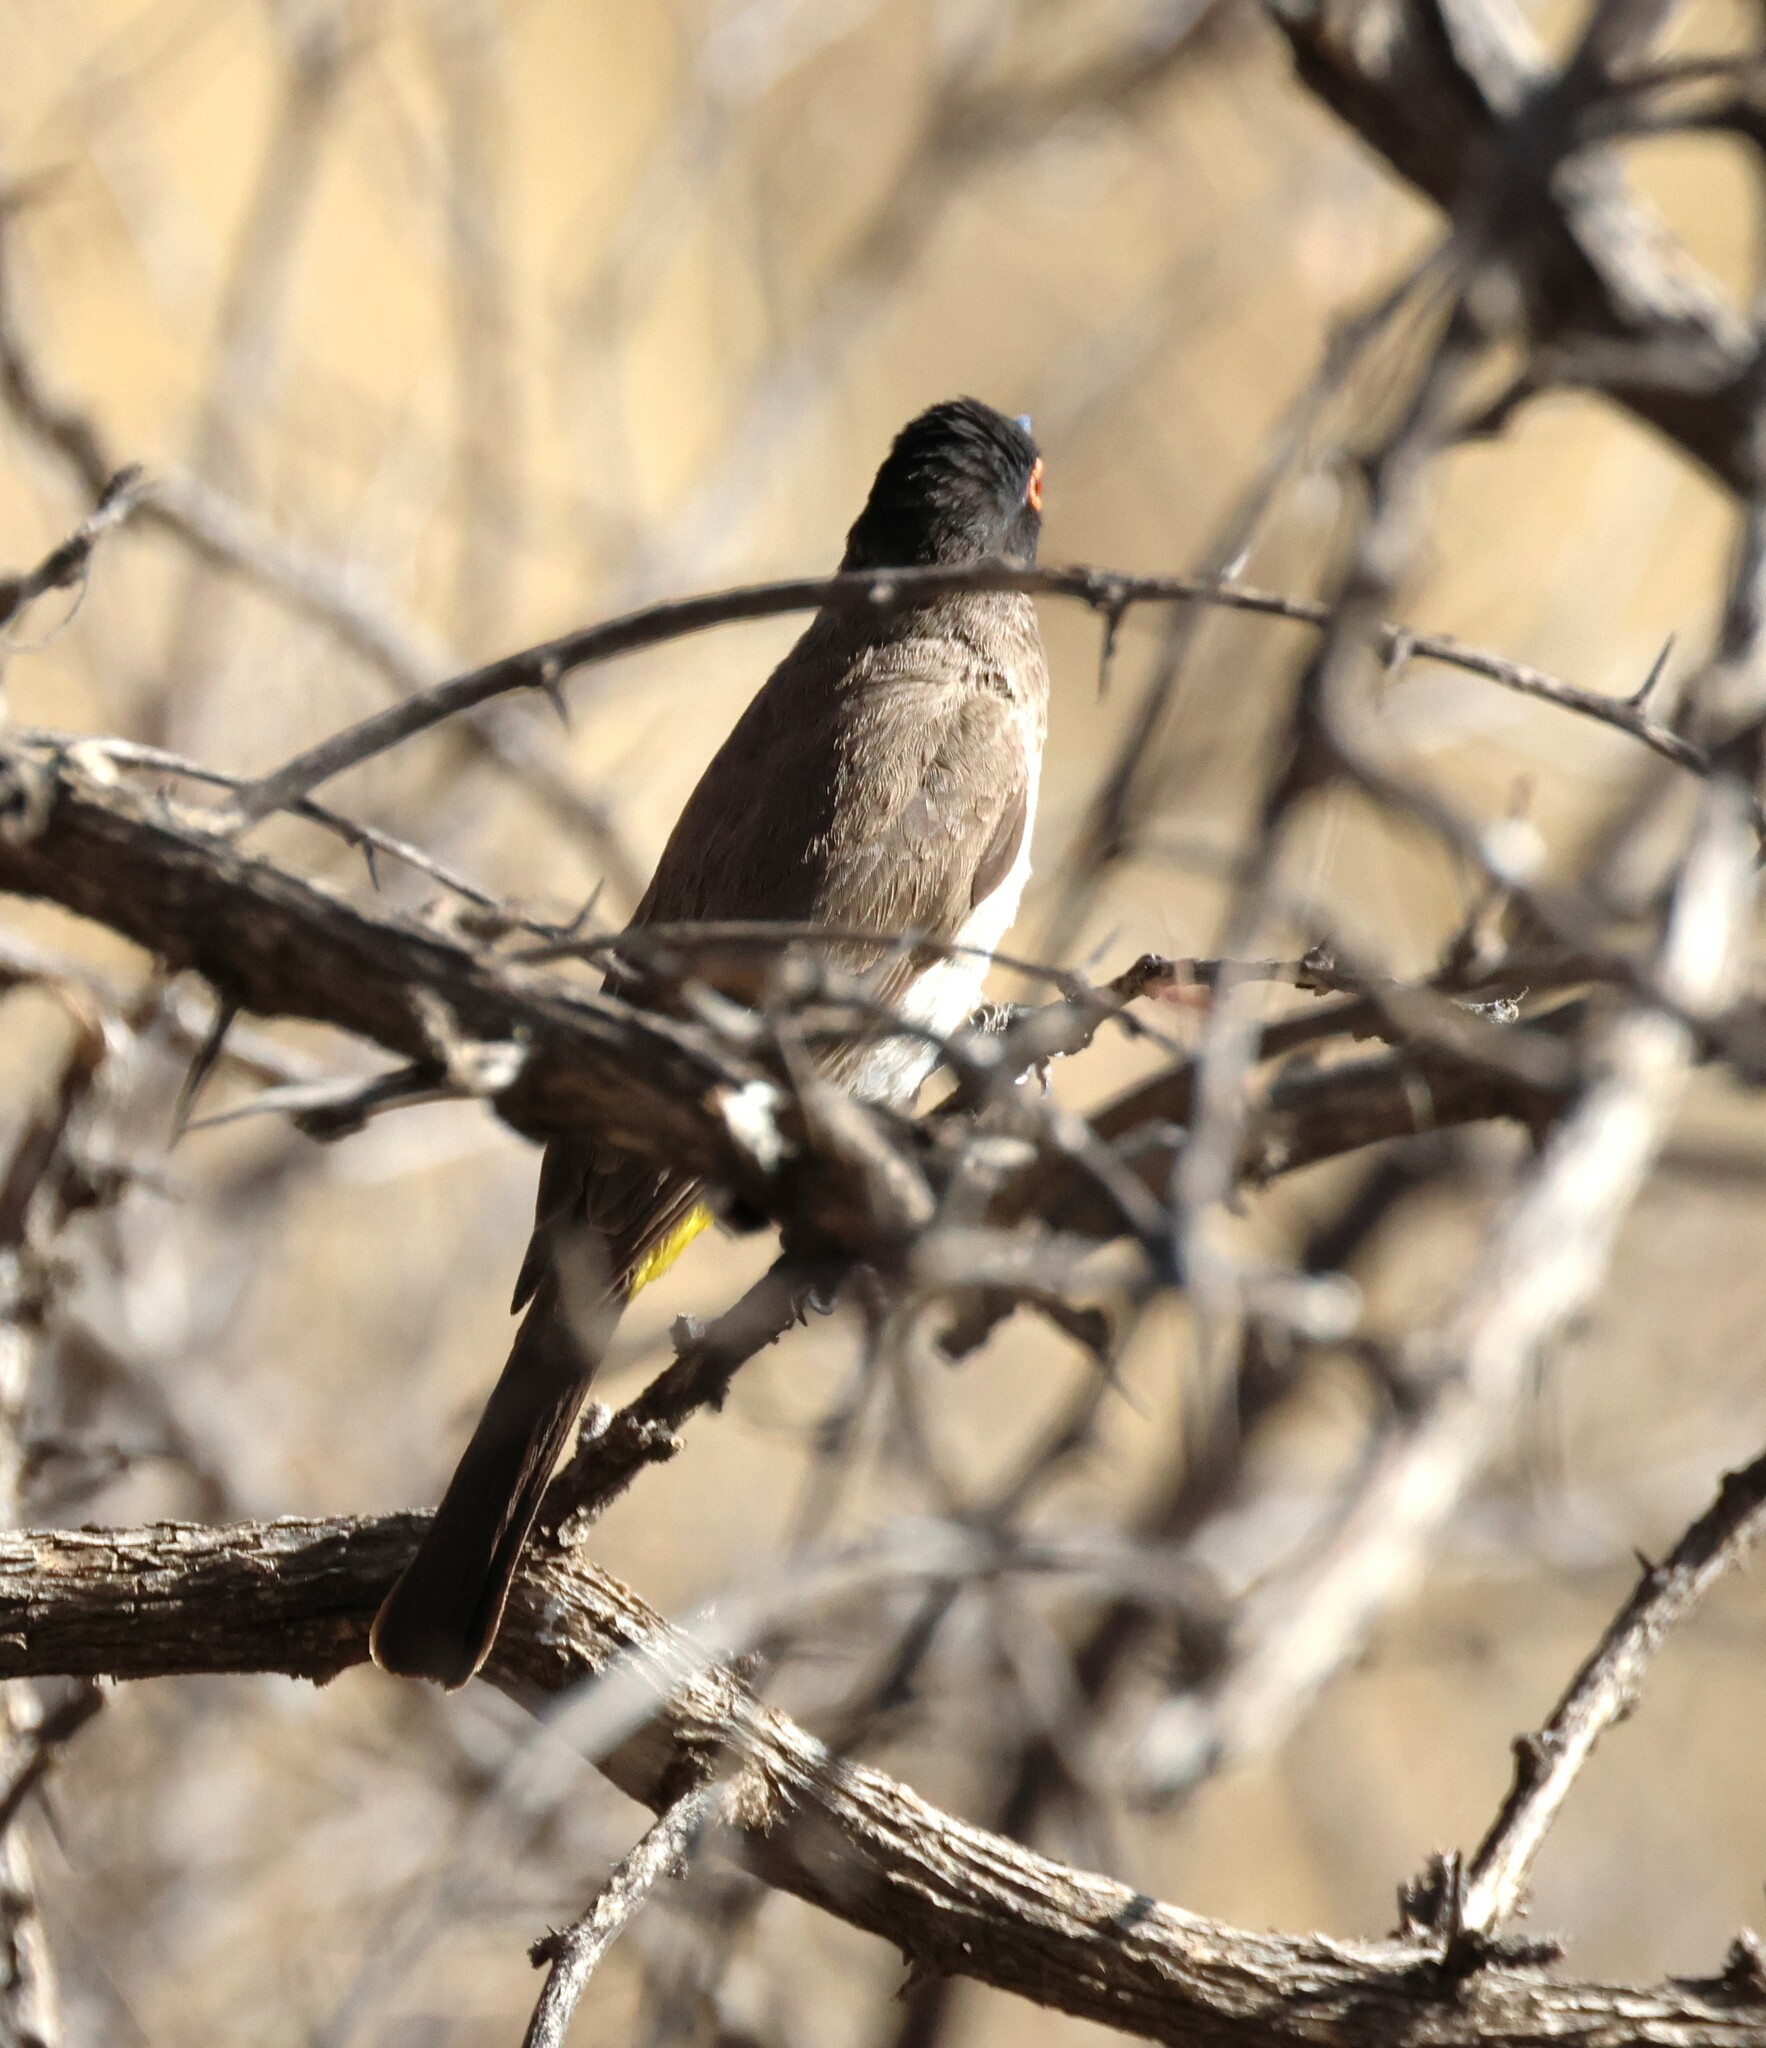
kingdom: Animalia
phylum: Chordata
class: Aves
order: Passeriformes
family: Pycnonotidae
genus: Pycnonotus
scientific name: Pycnonotus nigricans
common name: African red-eyed bulbul
